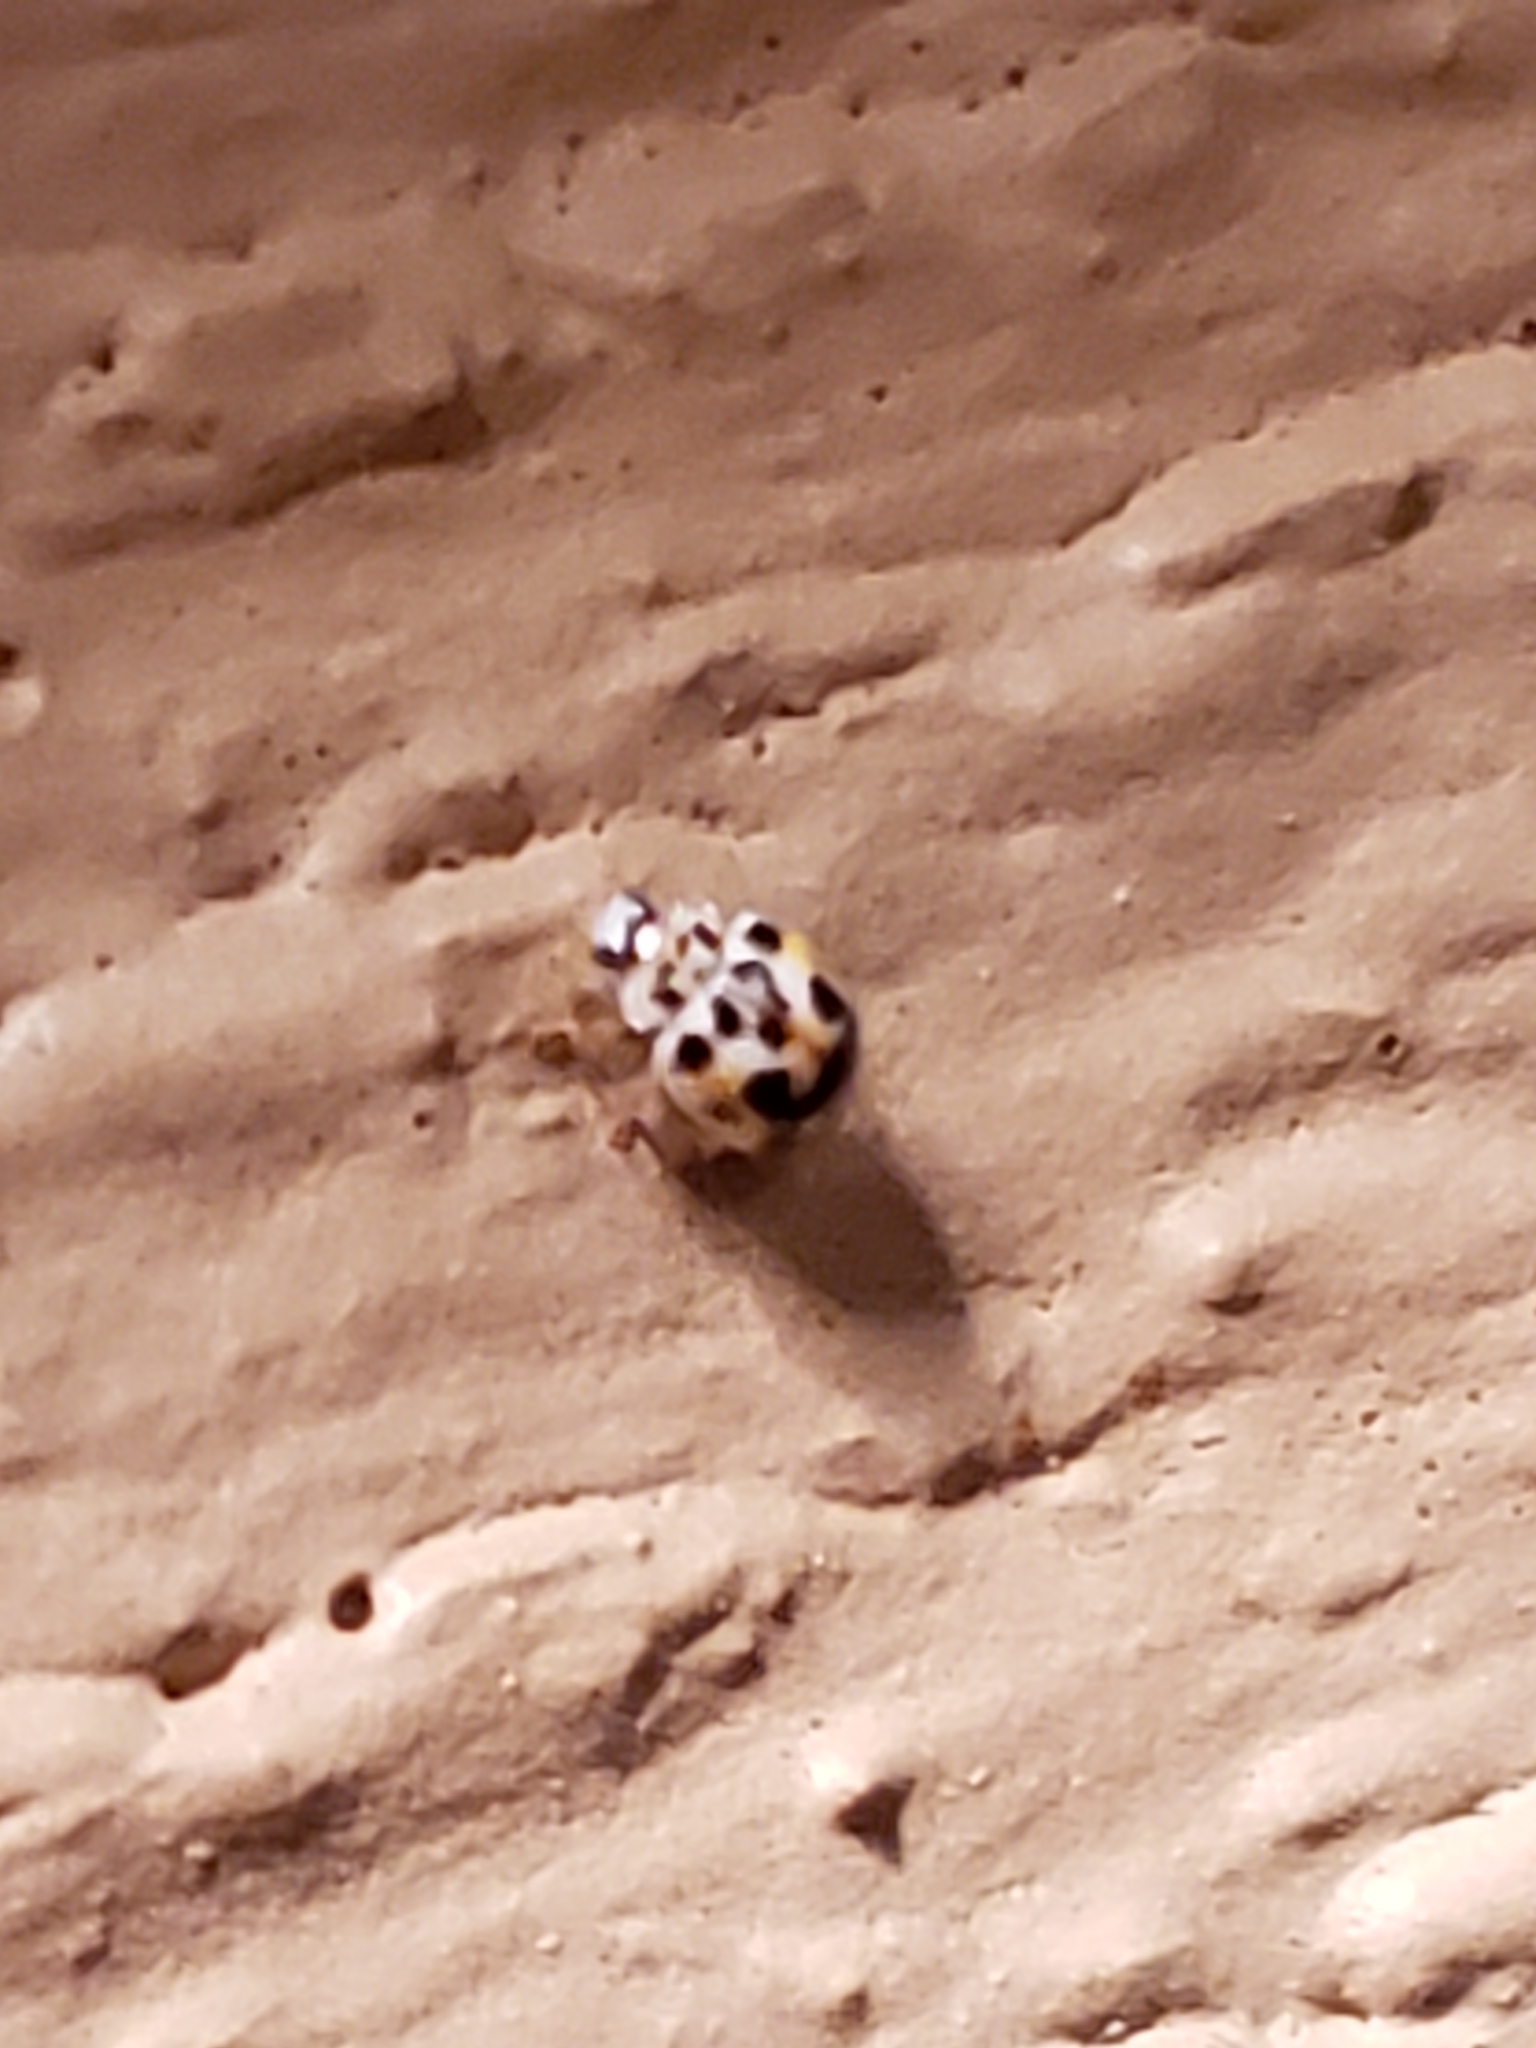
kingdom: Animalia
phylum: Arthropoda
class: Insecta
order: Coleoptera
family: Coccinellidae
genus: Psyllobora
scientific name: Psyllobora vigintimaculata
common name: Ladybird beetle
